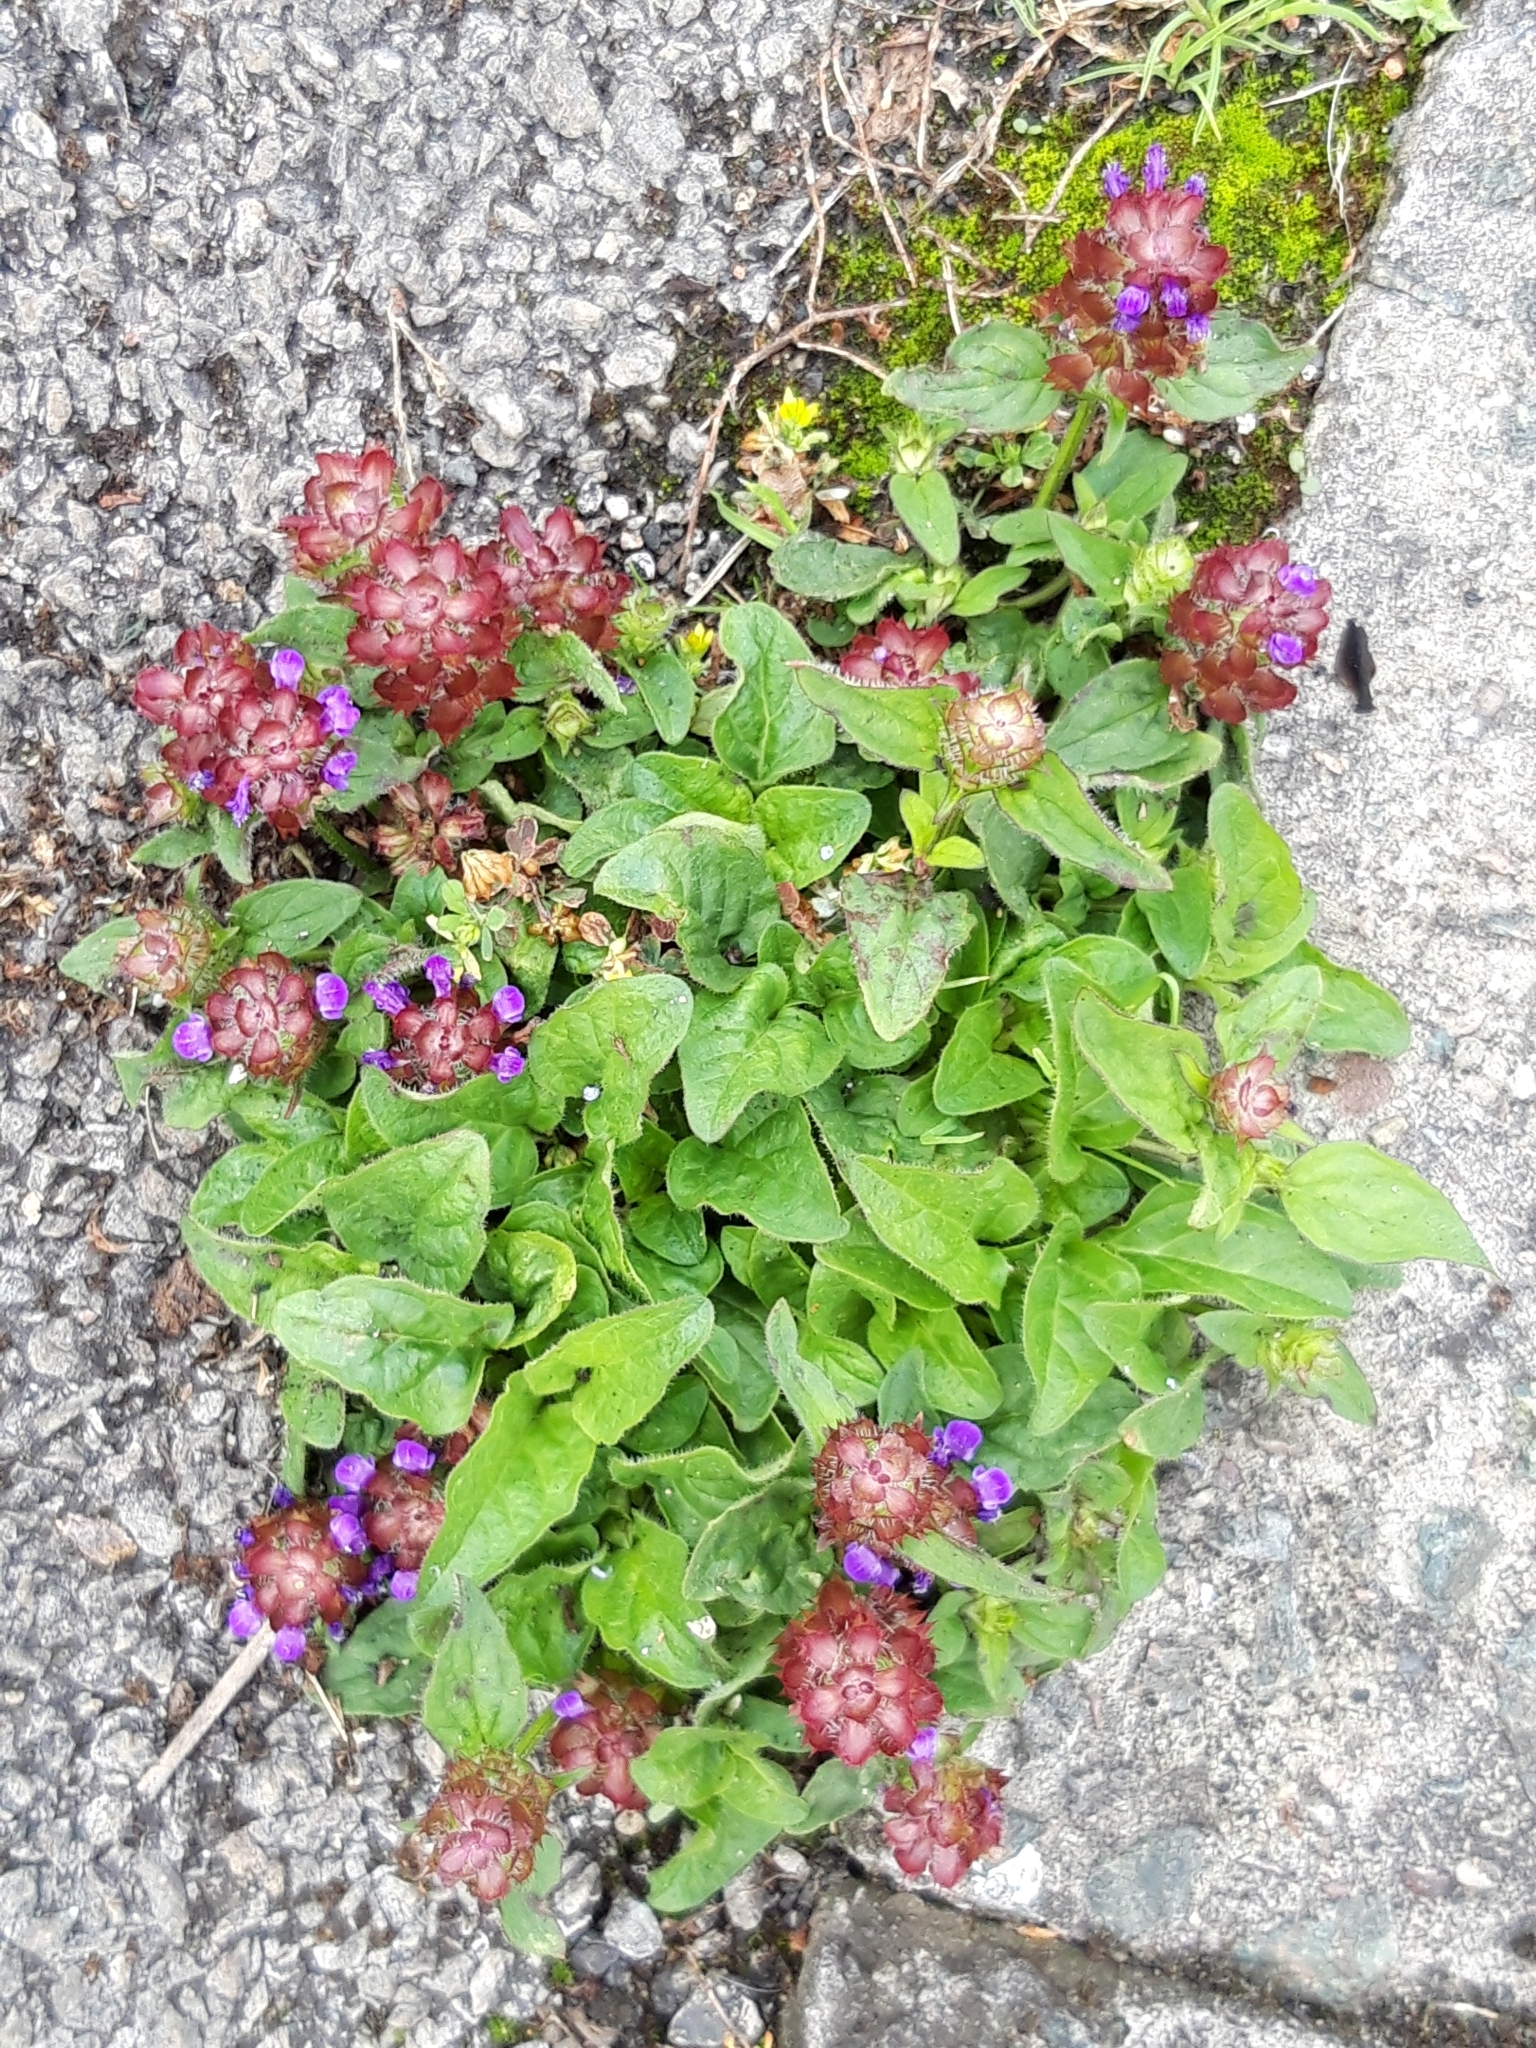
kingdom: Plantae
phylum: Tracheophyta
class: Magnoliopsida
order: Lamiales
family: Lamiaceae
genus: Prunella
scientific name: Prunella vulgaris
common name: Heal-all
